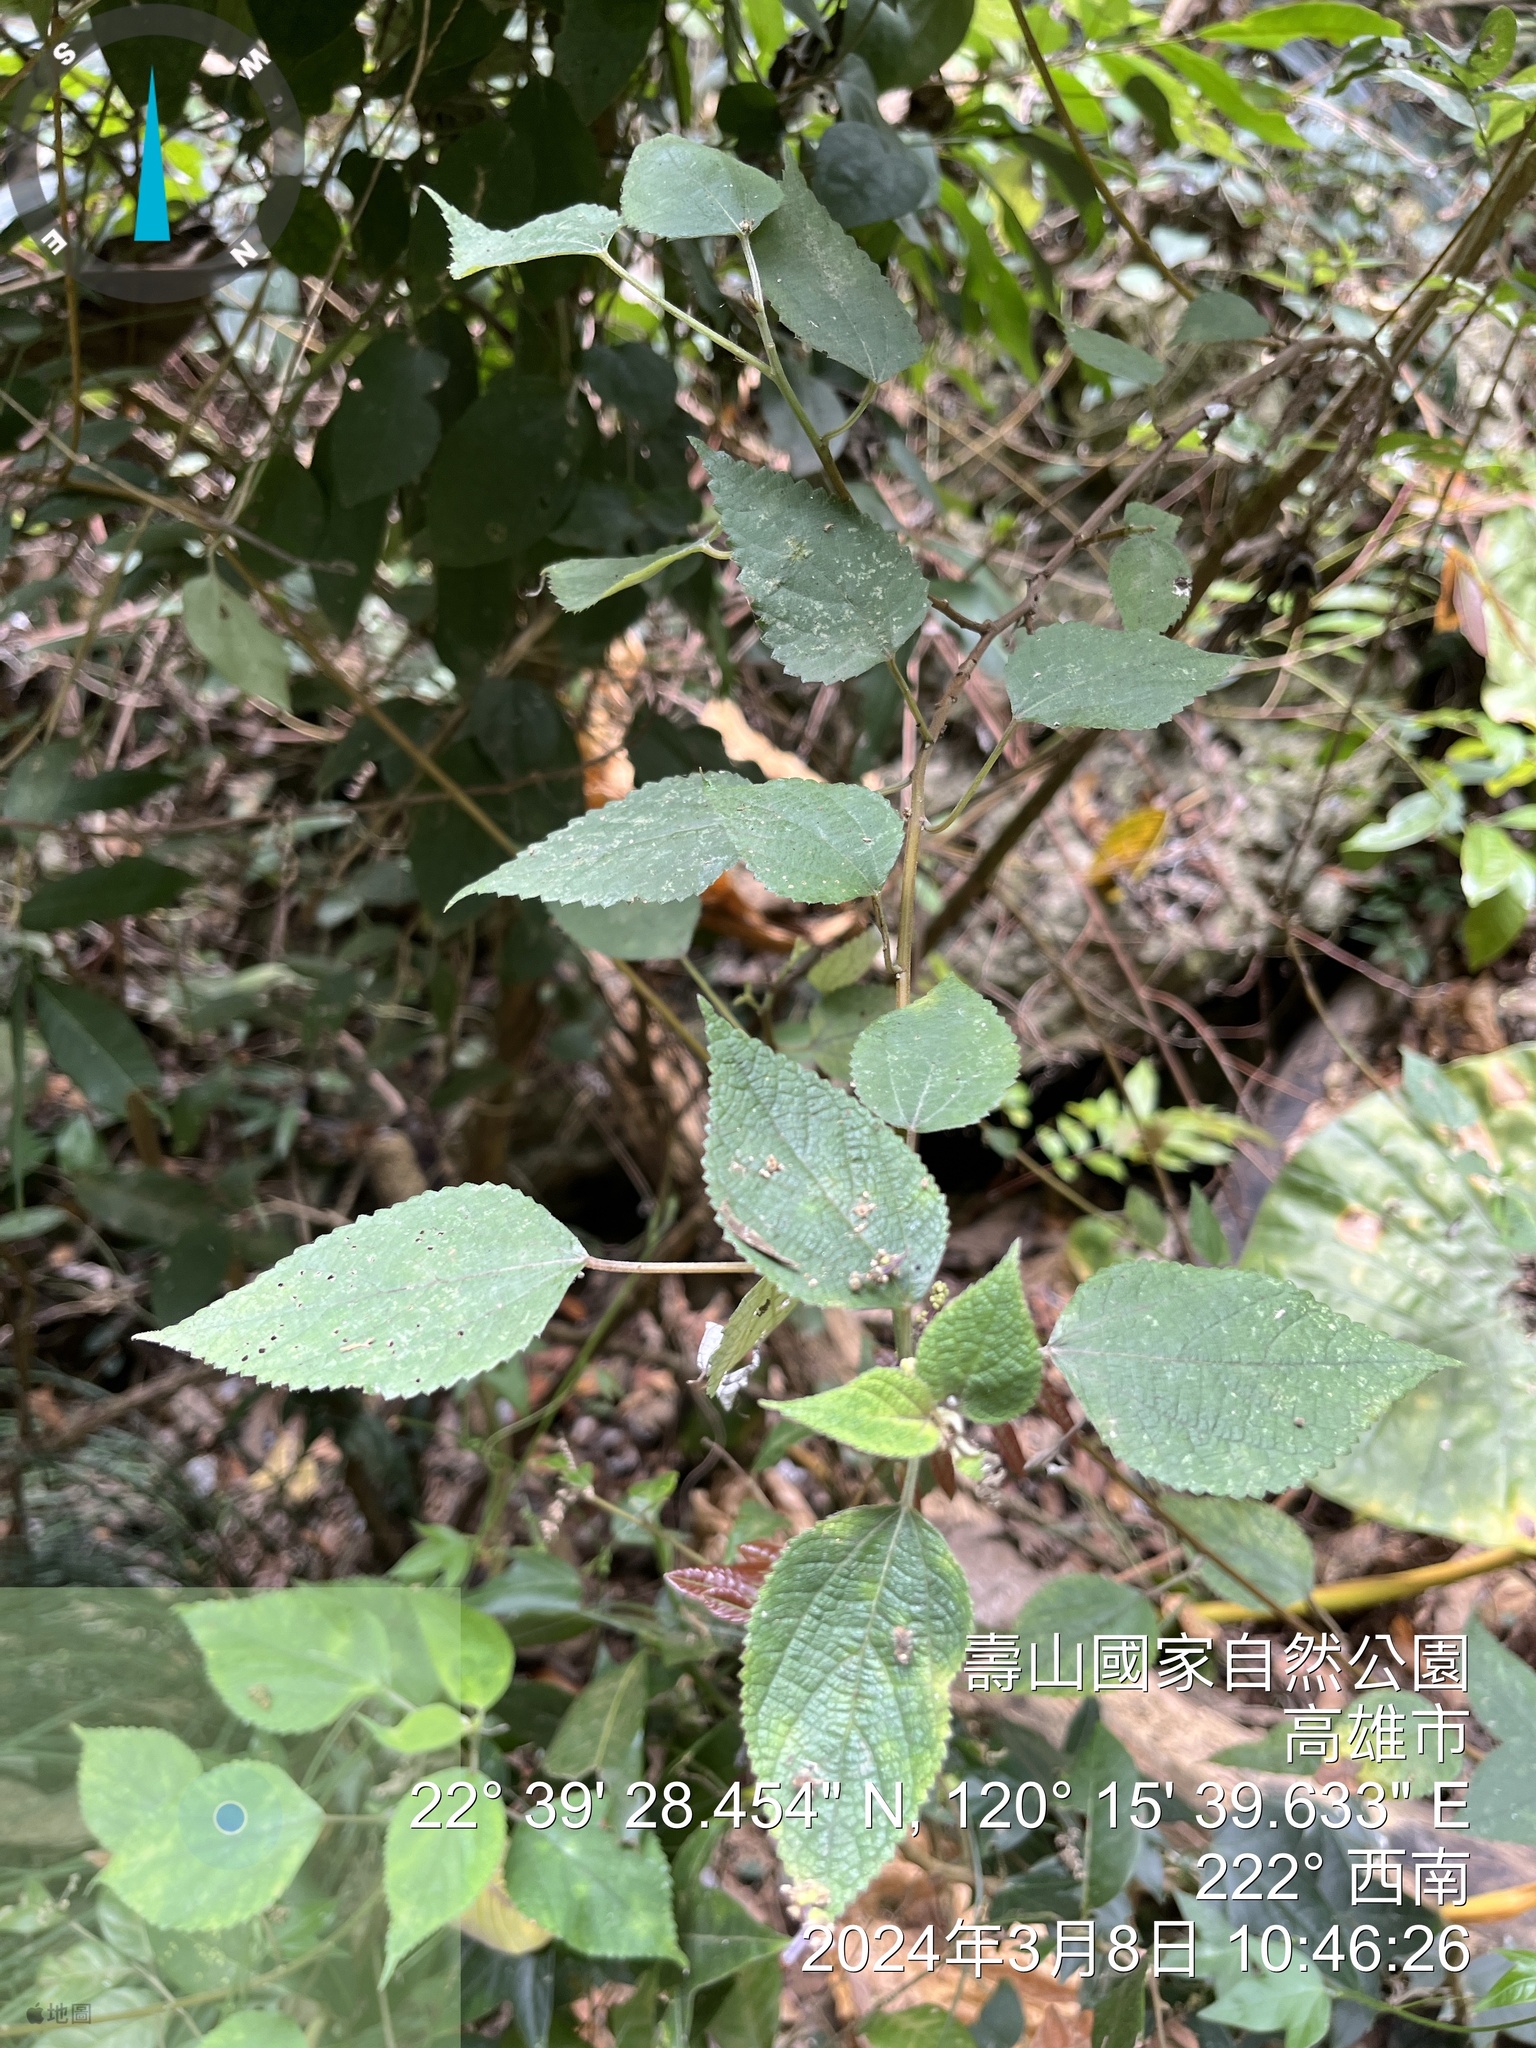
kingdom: Plantae
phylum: Tracheophyta
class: Magnoliopsida
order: Rosales
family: Urticaceae
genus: Boehmeria
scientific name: Boehmeria nivea
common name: Ramie chinese grass
